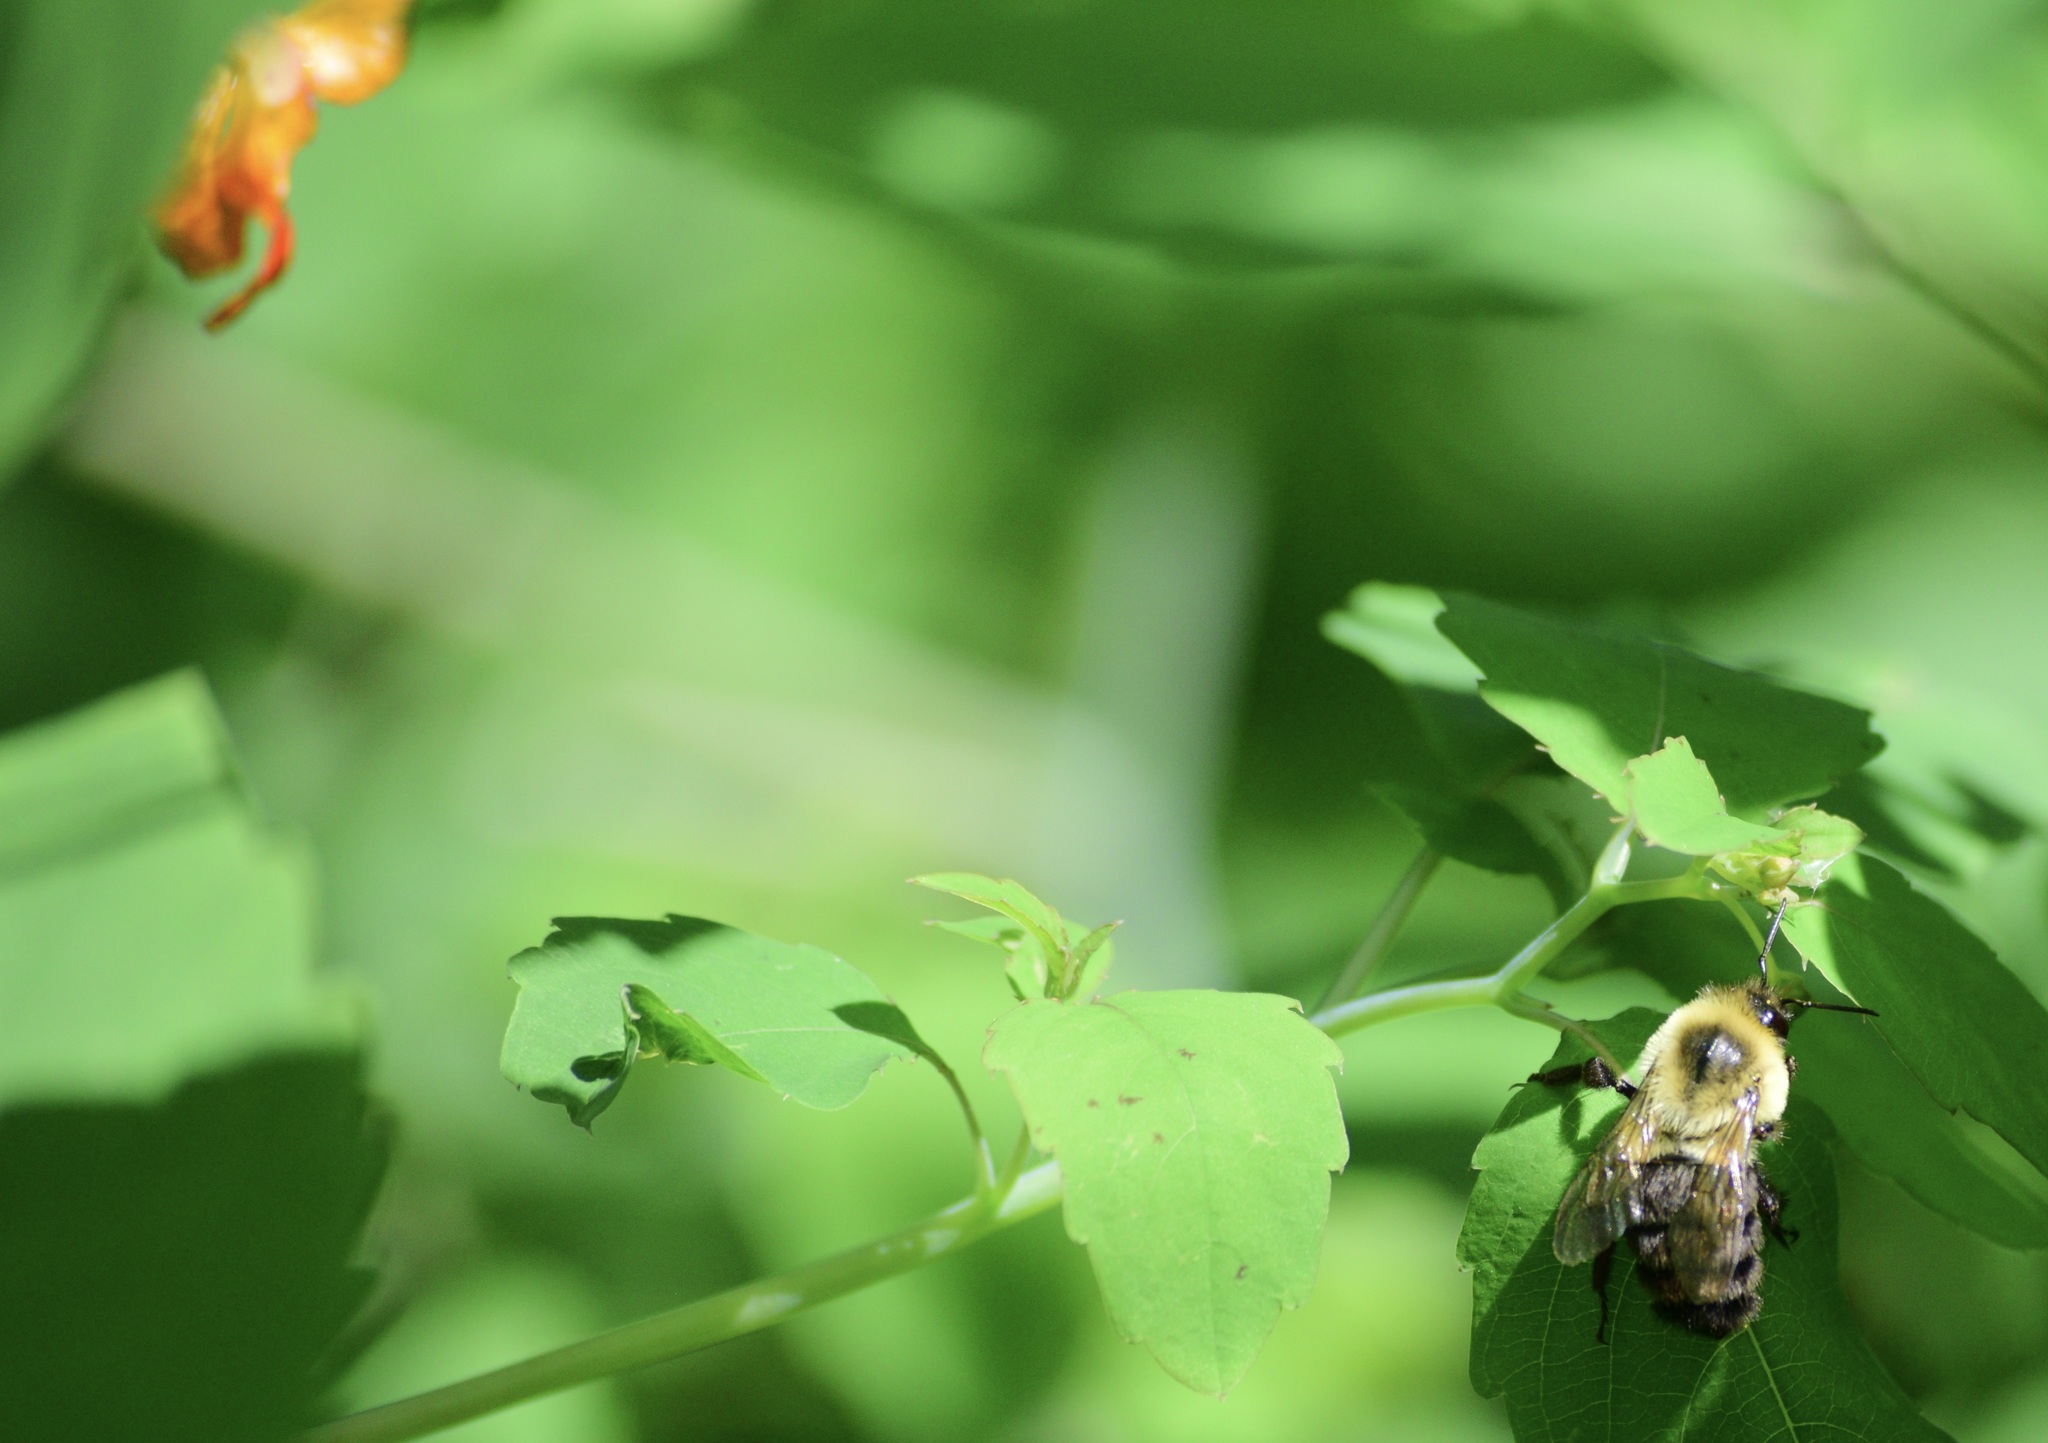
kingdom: Animalia
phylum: Arthropoda
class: Insecta
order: Hymenoptera
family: Apidae
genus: Bombus
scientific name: Bombus impatiens
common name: Common eastern bumble bee
